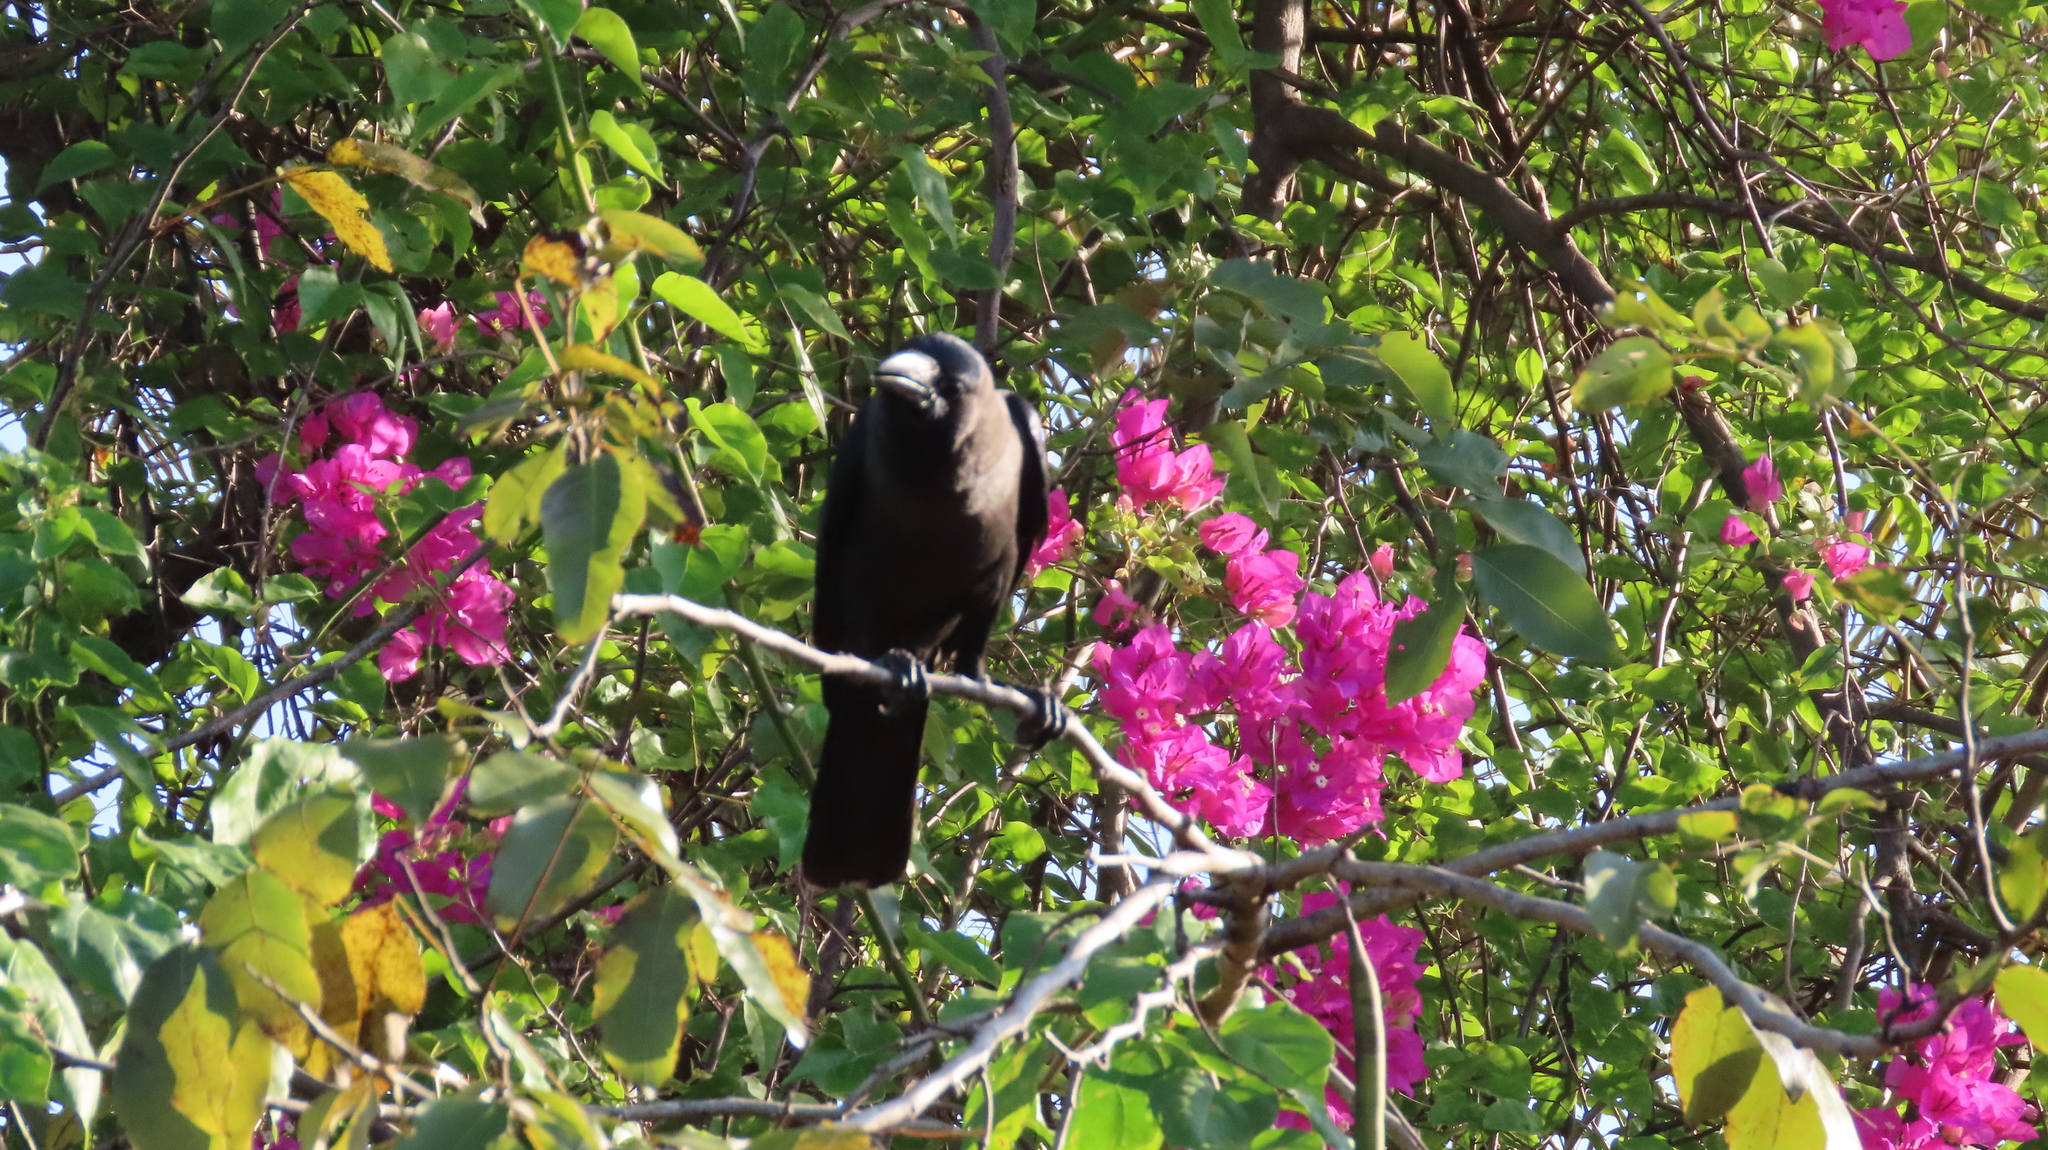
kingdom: Animalia
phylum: Chordata
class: Aves
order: Passeriformes
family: Corvidae
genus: Corvus
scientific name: Corvus splendens
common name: House crow
